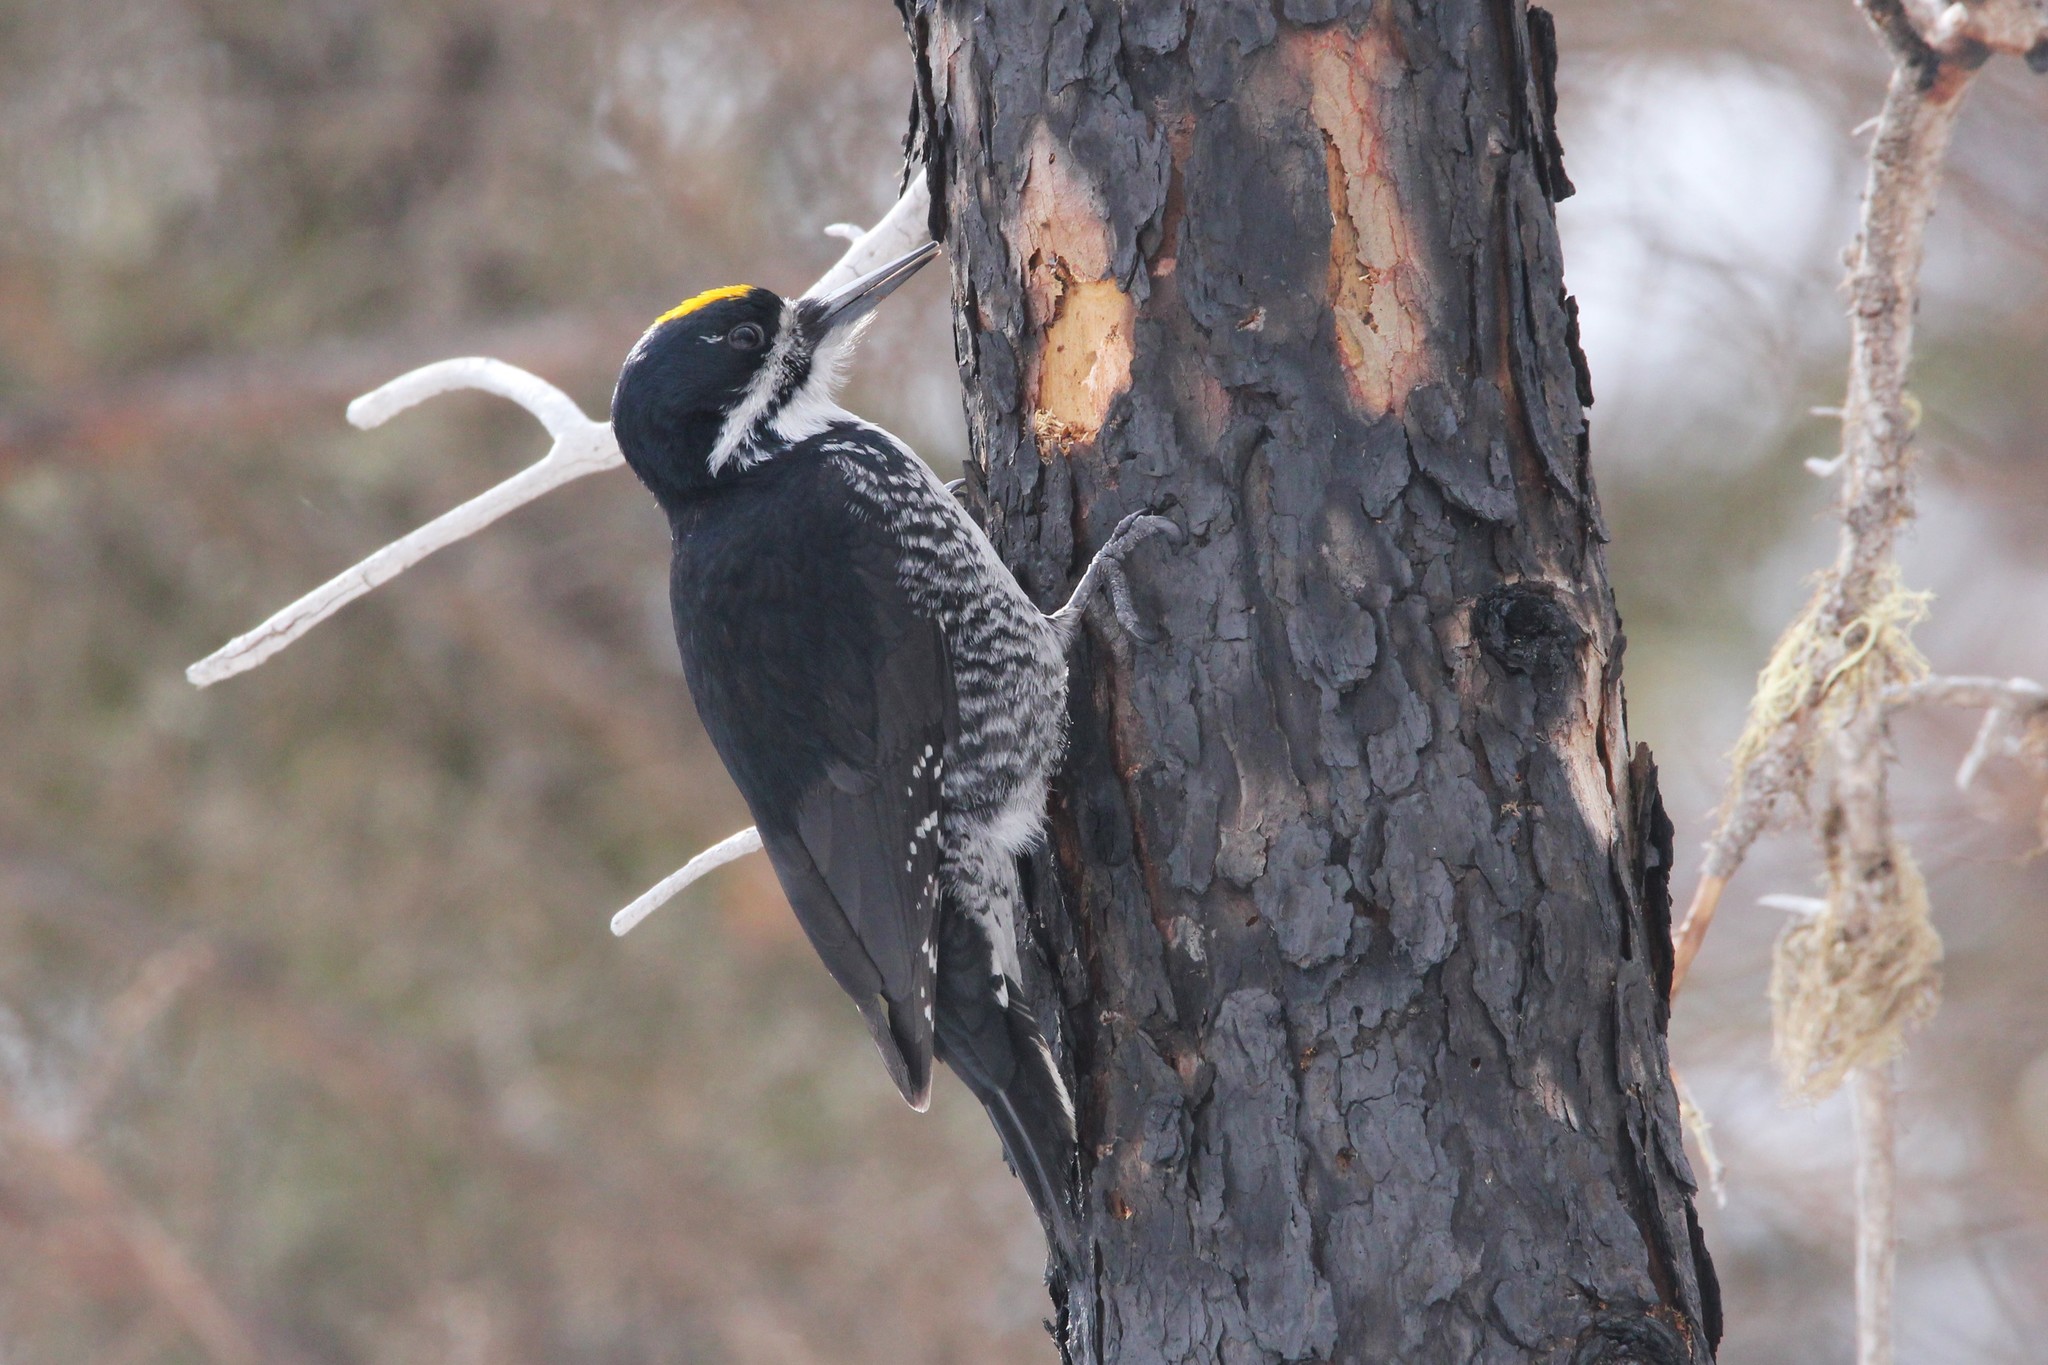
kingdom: Animalia
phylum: Chordata
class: Aves
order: Piciformes
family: Picidae
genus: Picoides
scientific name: Picoides arcticus
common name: Black-backed woodpecker
